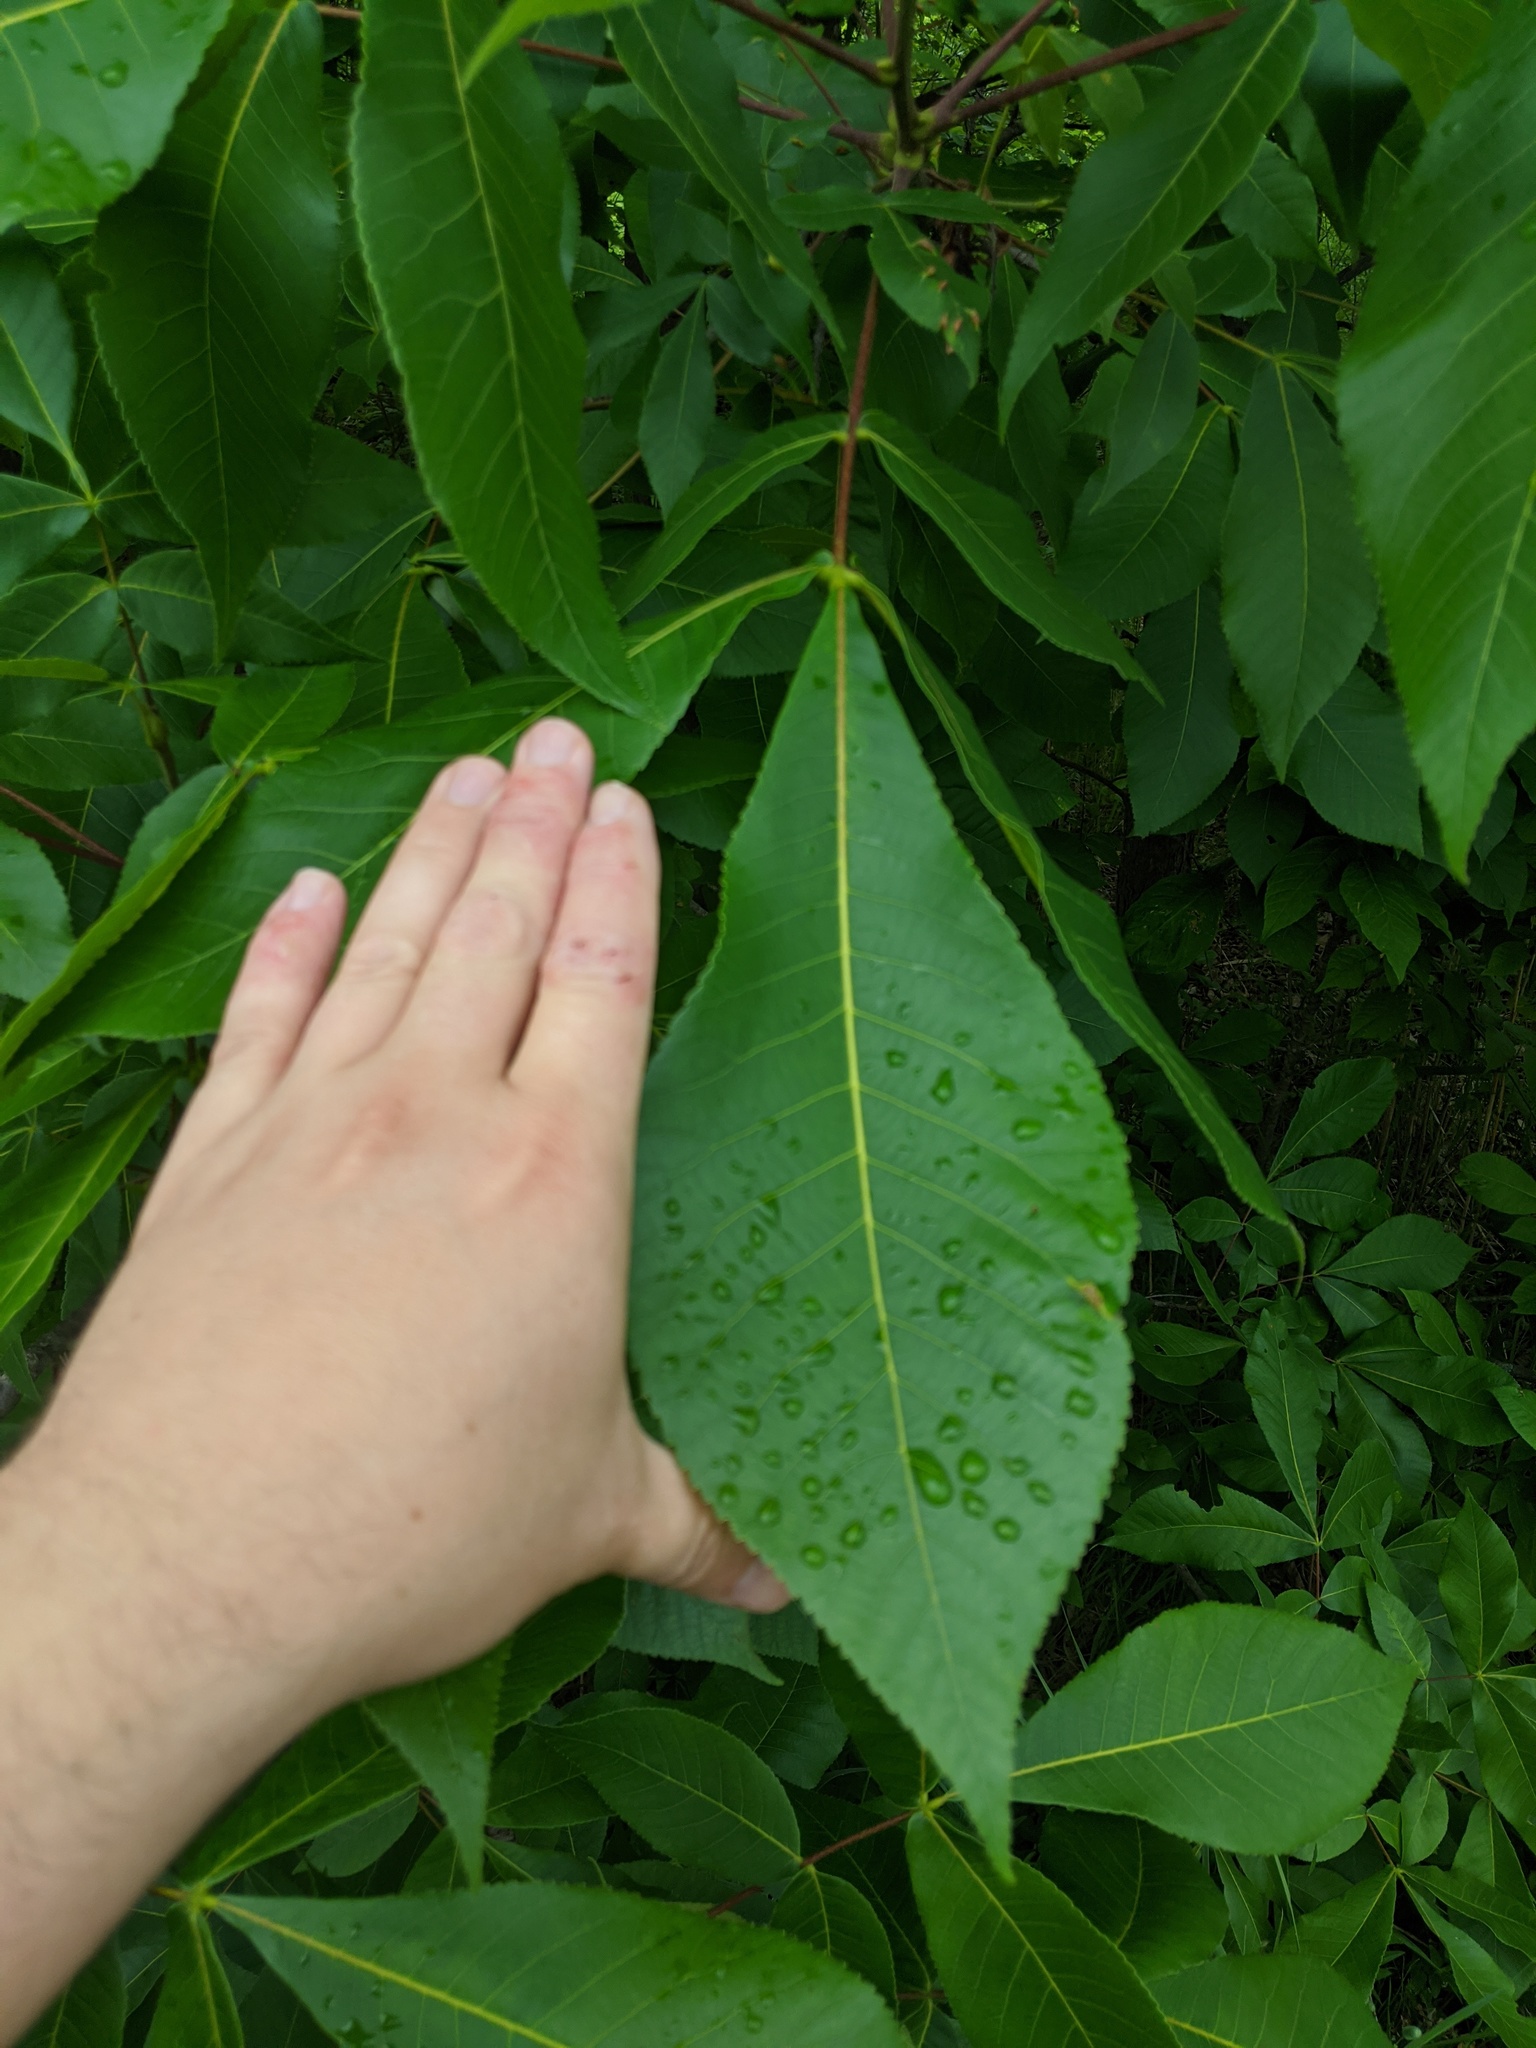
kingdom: Plantae
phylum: Tracheophyta
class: Magnoliopsida
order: Fagales
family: Juglandaceae
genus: Carya
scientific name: Carya ovata
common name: Shagbark hickory
